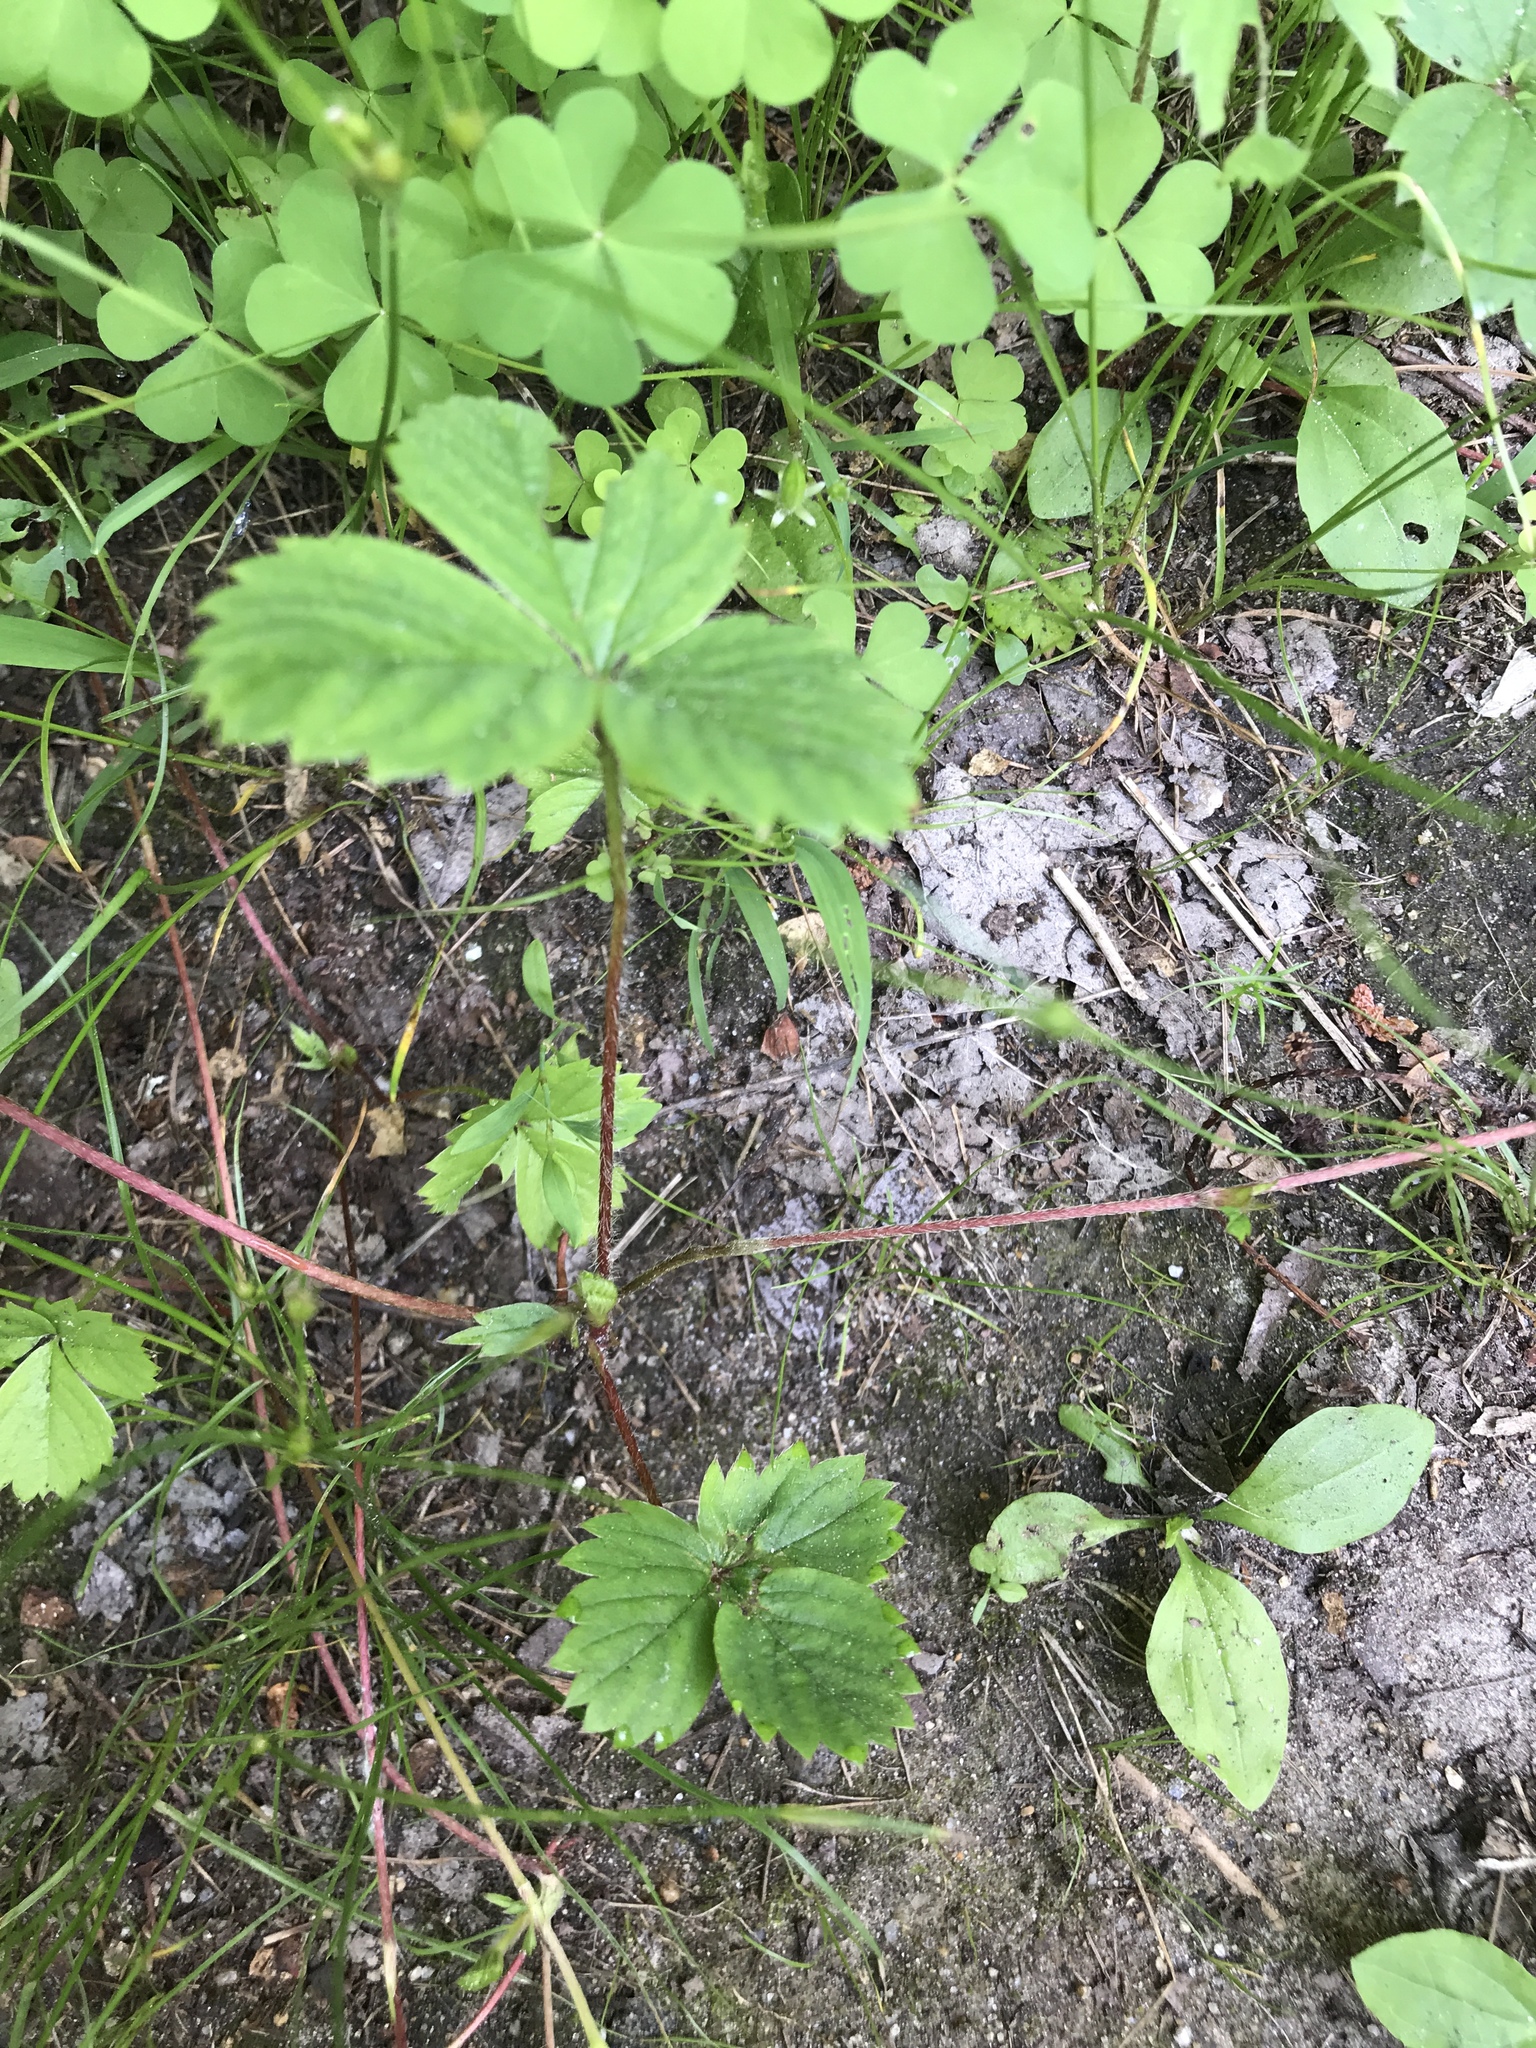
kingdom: Plantae
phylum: Tracheophyta
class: Magnoliopsida
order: Rosales
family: Rosaceae
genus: Fragaria
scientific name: Fragaria virginiana
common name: Thickleaved wild strawberry
